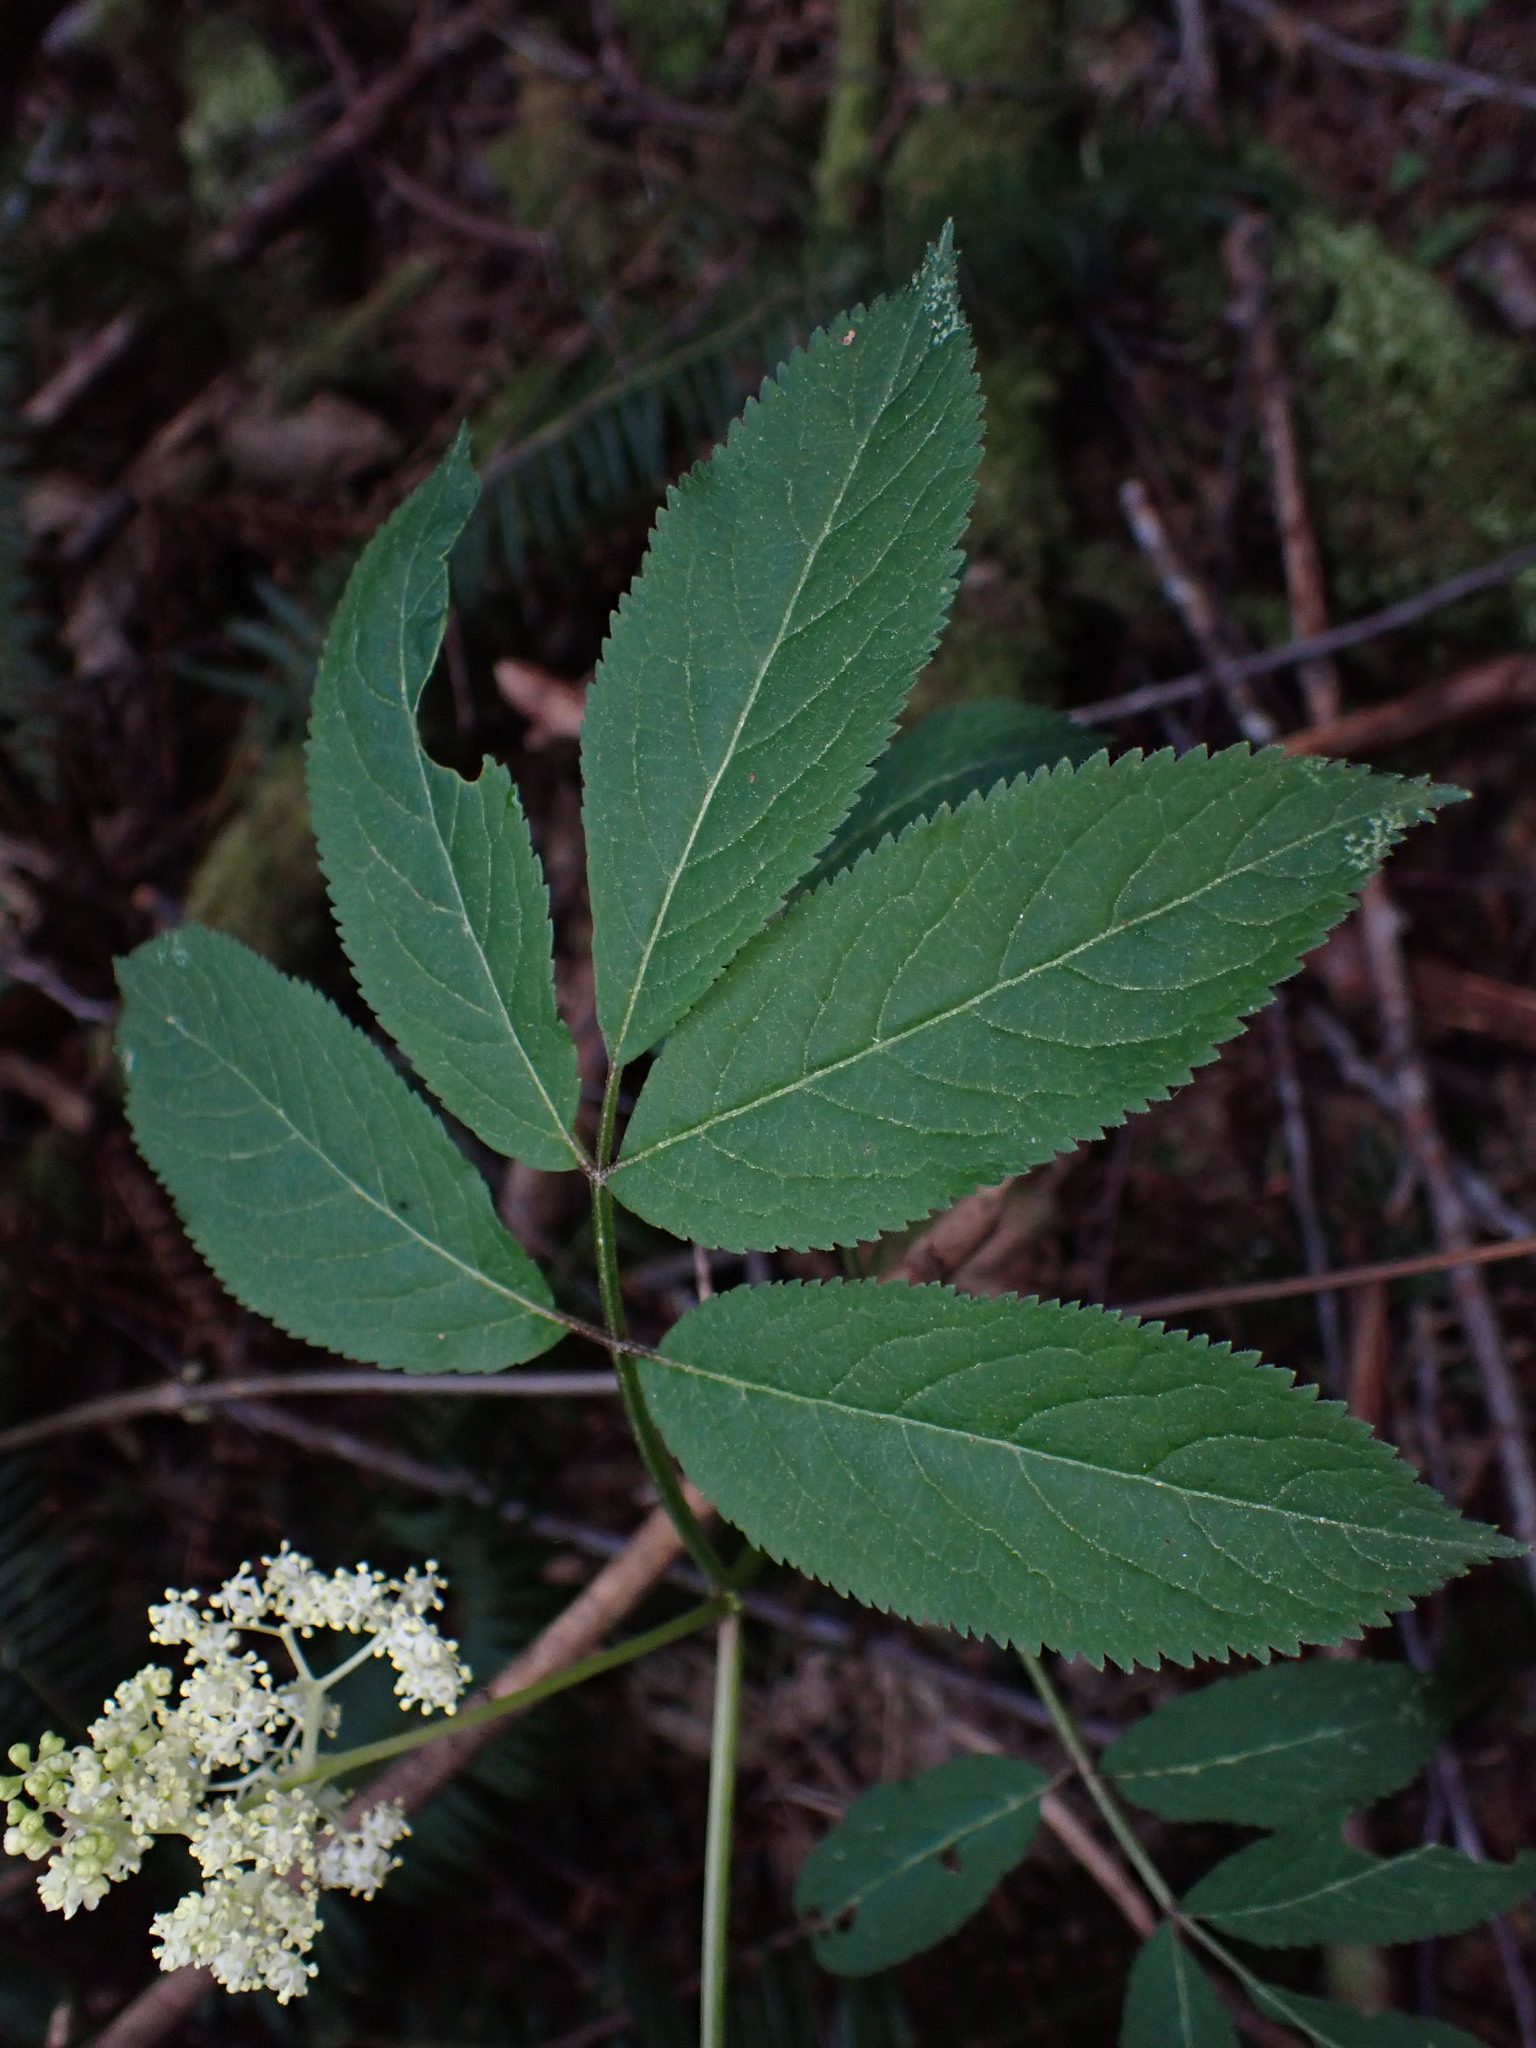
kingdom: Plantae
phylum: Tracheophyta
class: Magnoliopsida
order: Dipsacales
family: Viburnaceae
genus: Sambucus
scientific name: Sambucus racemosa
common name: Red-berried elder
